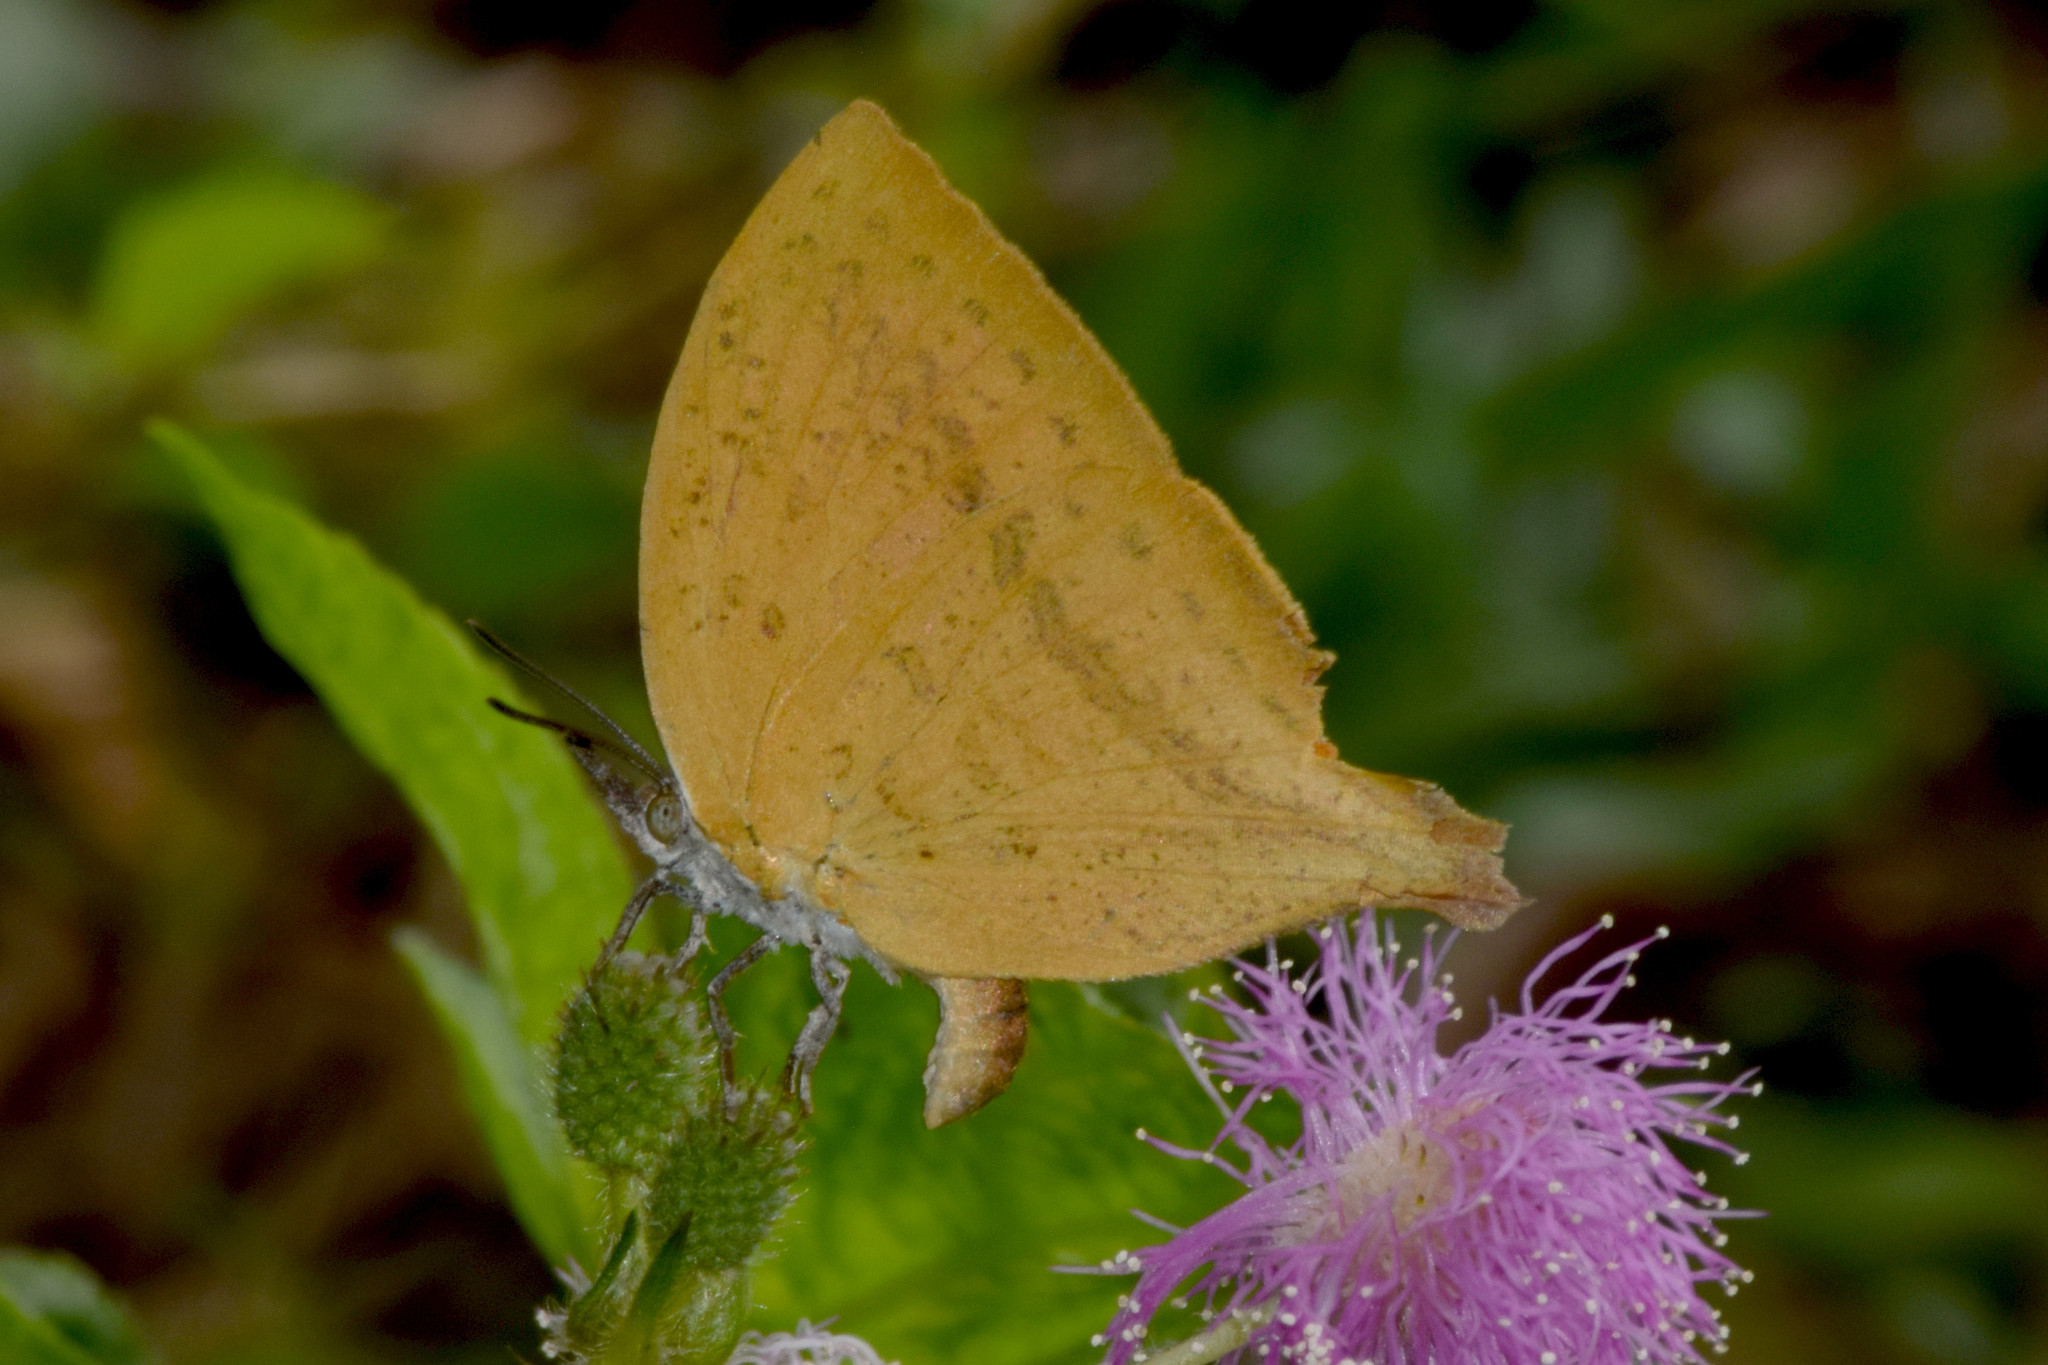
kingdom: Animalia
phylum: Arthropoda
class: Insecta
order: Lepidoptera
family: Lycaenidae
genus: Loxura
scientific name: Loxura atymnus
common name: Common yamfly
